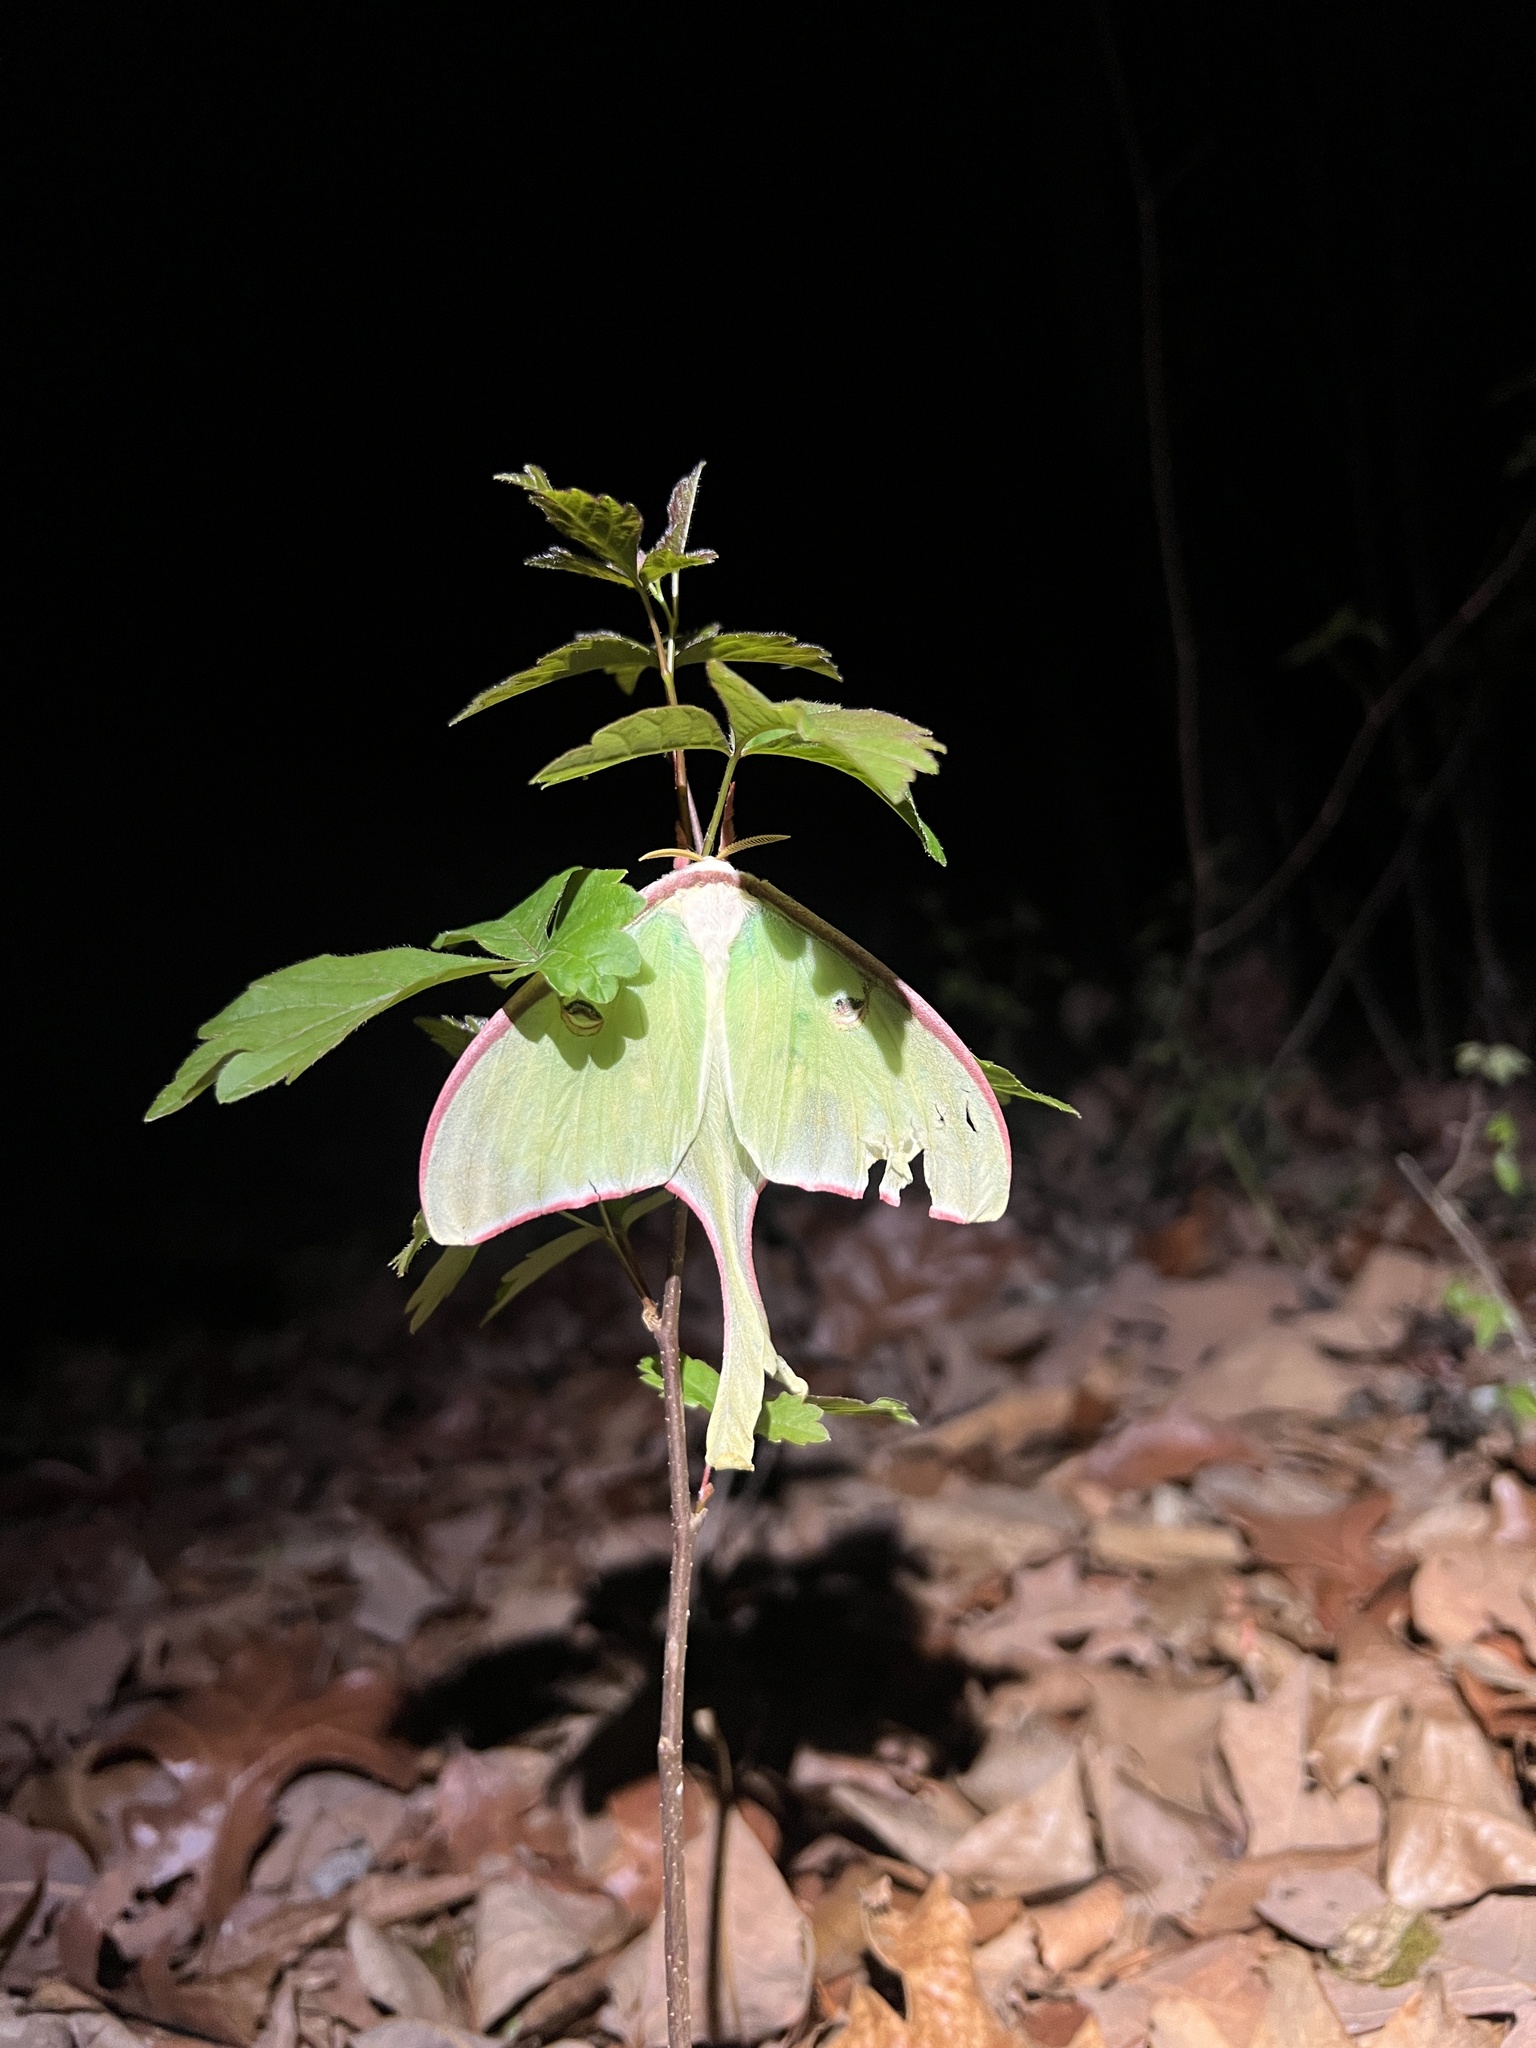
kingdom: Animalia
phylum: Arthropoda
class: Insecta
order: Lepidoptera
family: Saturniidae
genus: Actias
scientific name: Actias luna
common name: Luna moth
